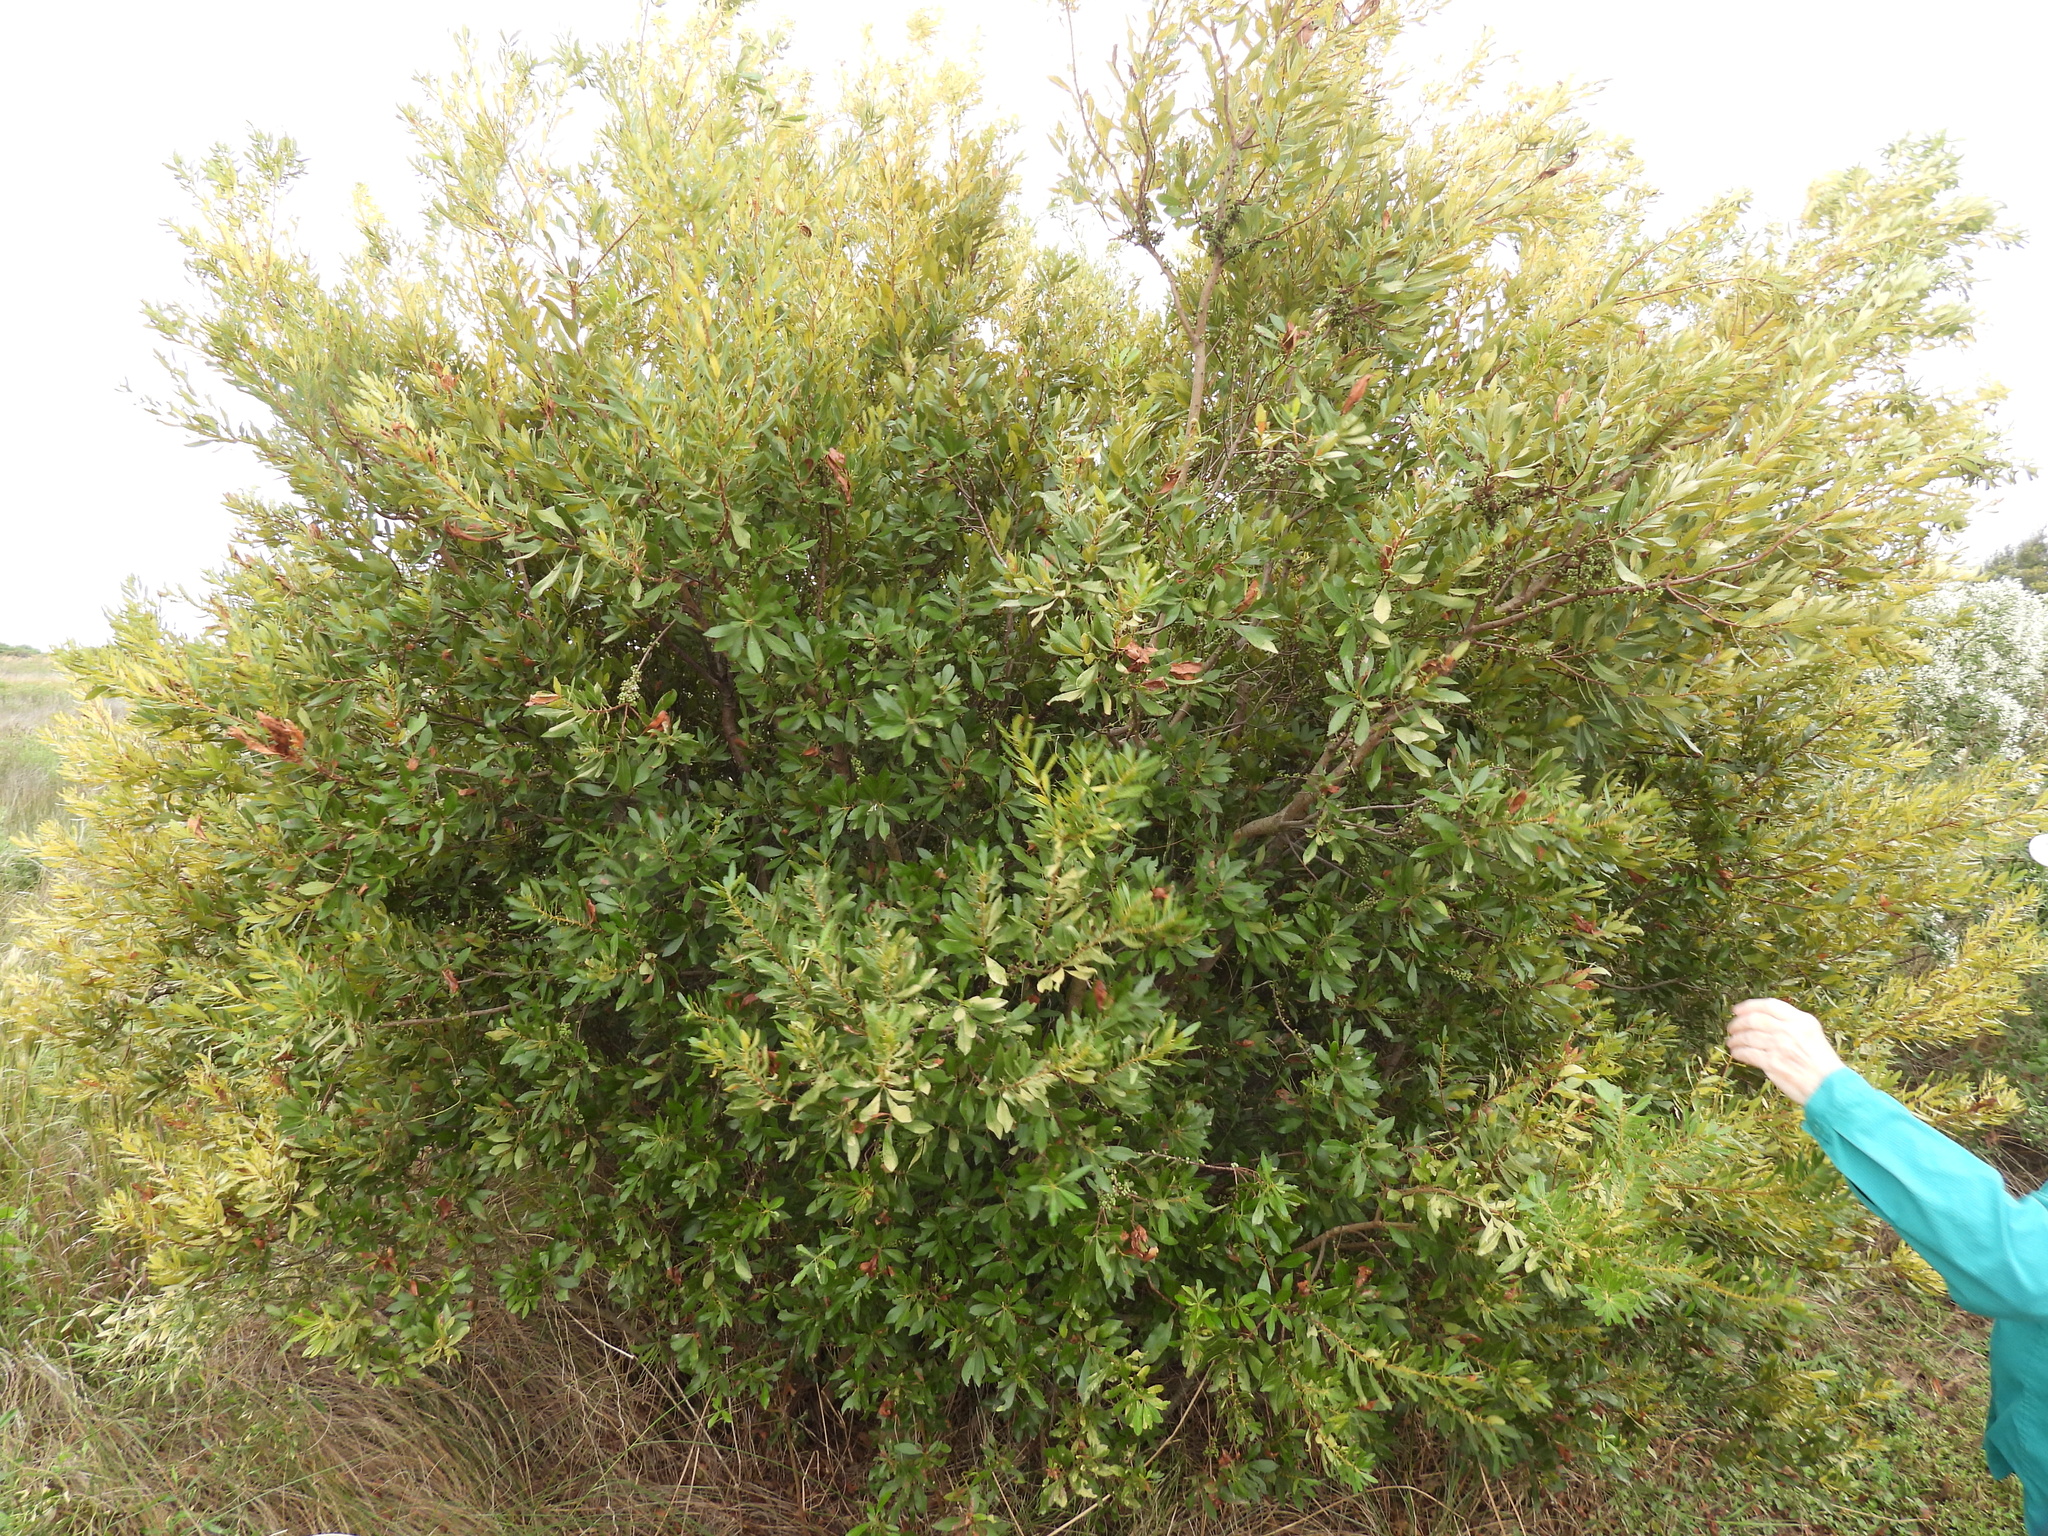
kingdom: Plantae
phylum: Tracheophyta
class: Magnoliopsida
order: Fagales
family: Myricaceae
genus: Morella
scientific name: Morella cerifera
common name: Wax myrtle
